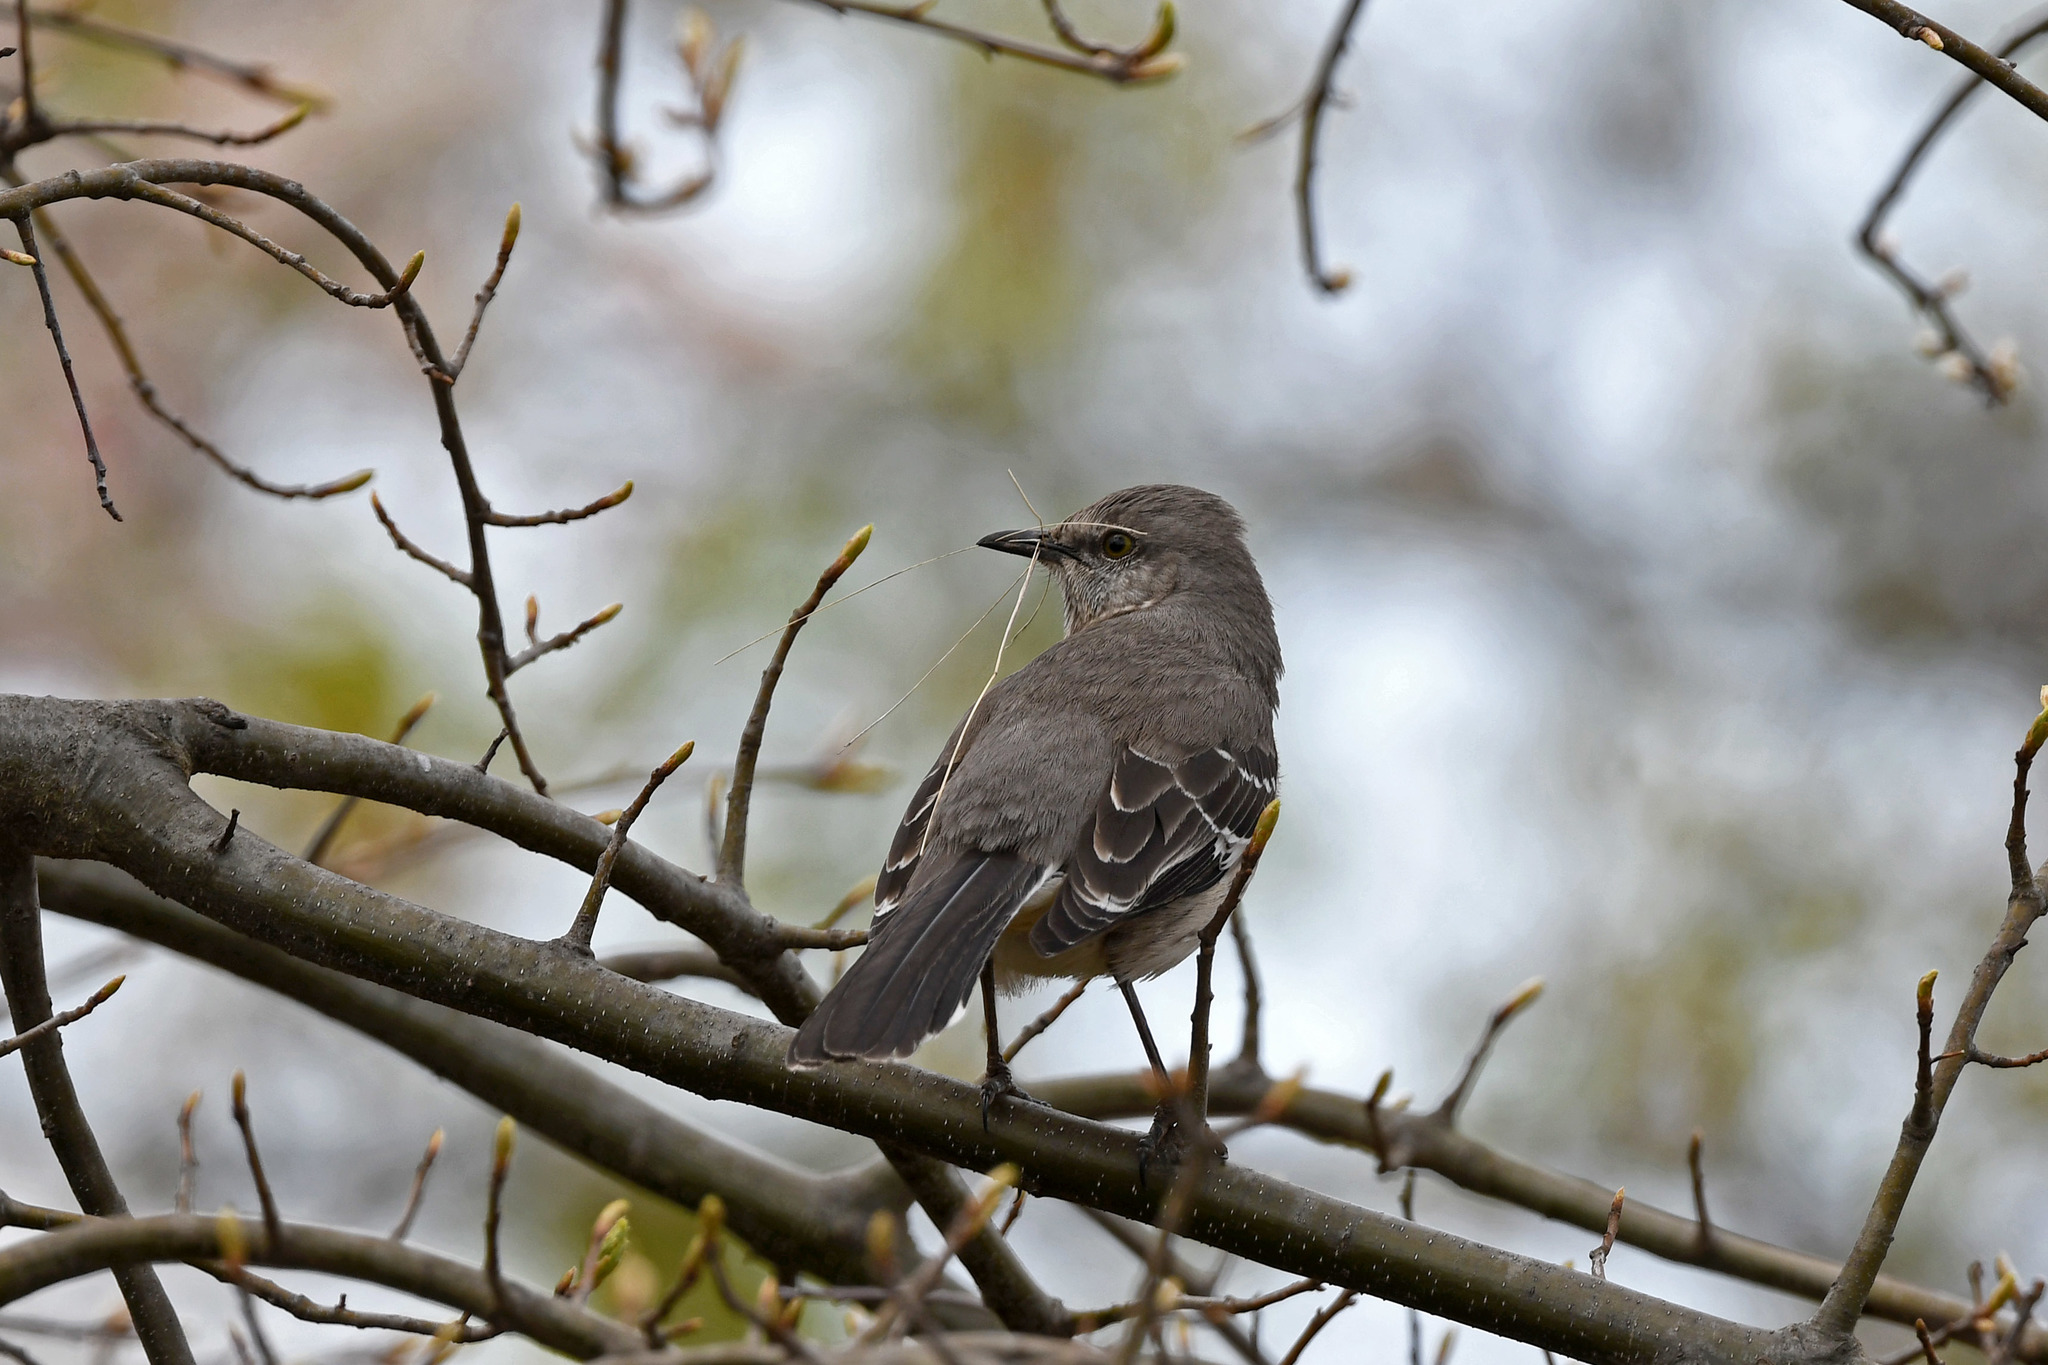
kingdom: Animalia
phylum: Chordata
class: Aves
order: Passeriformes
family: Mimidae
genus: Mimus
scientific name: Mimus polyglottos
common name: Northern mockingbird
